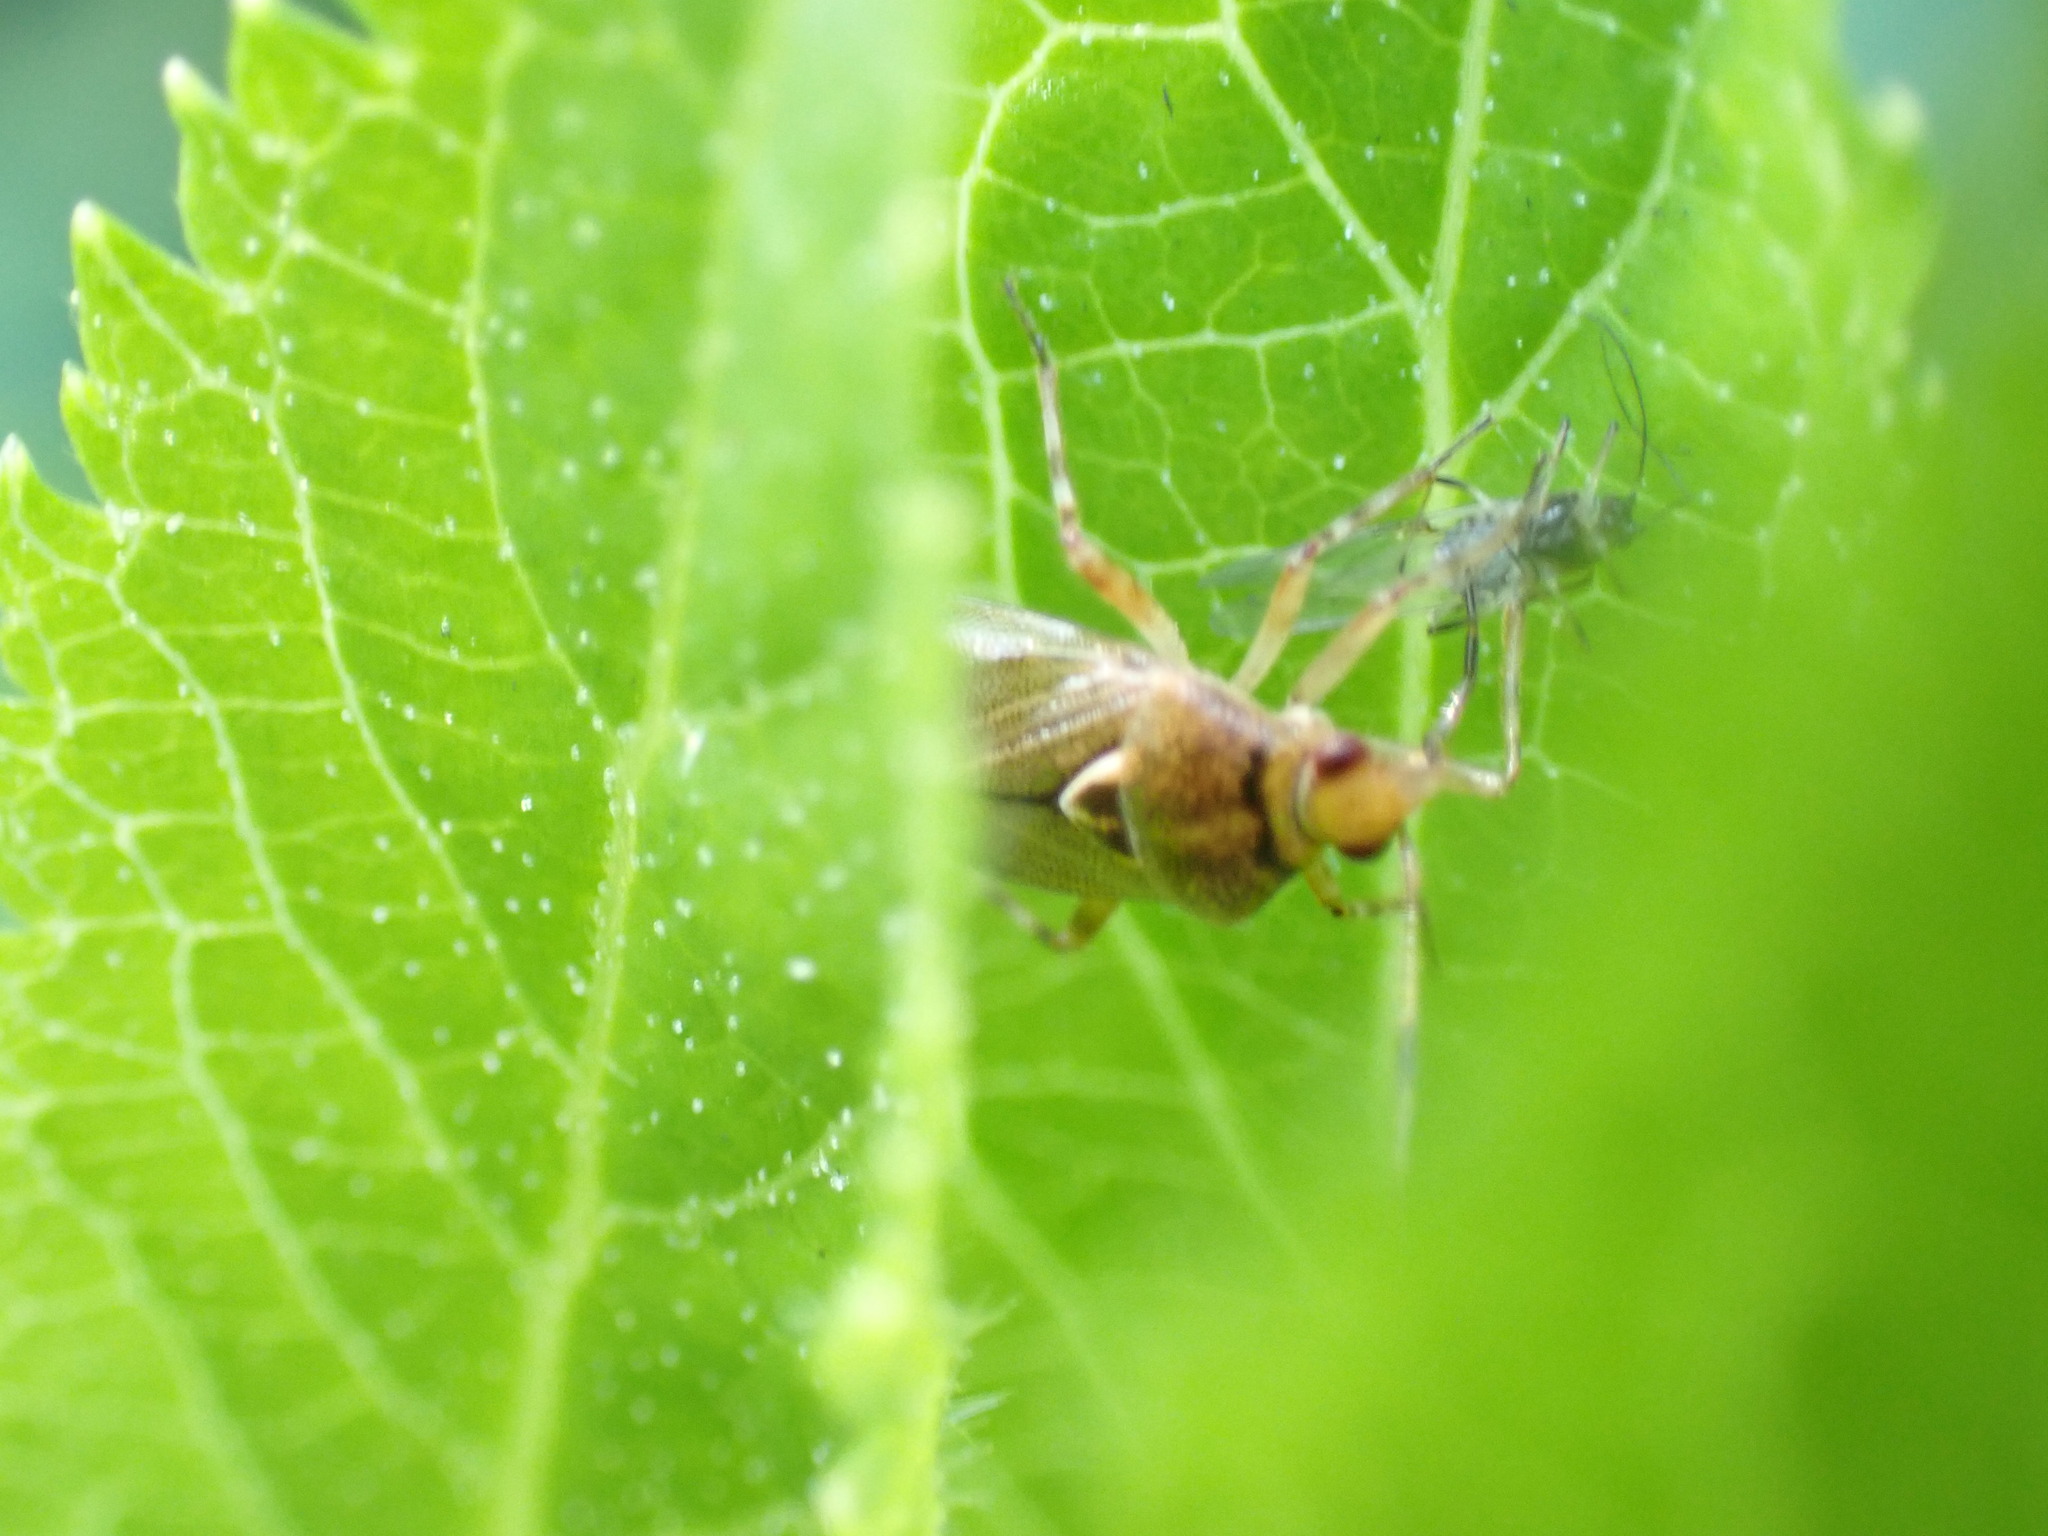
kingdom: Animalia
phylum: Arthropoda
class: Insecta
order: Hemiptera
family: Miridae
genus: Deraeocoris
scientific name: Deraeocoris flavilinea
